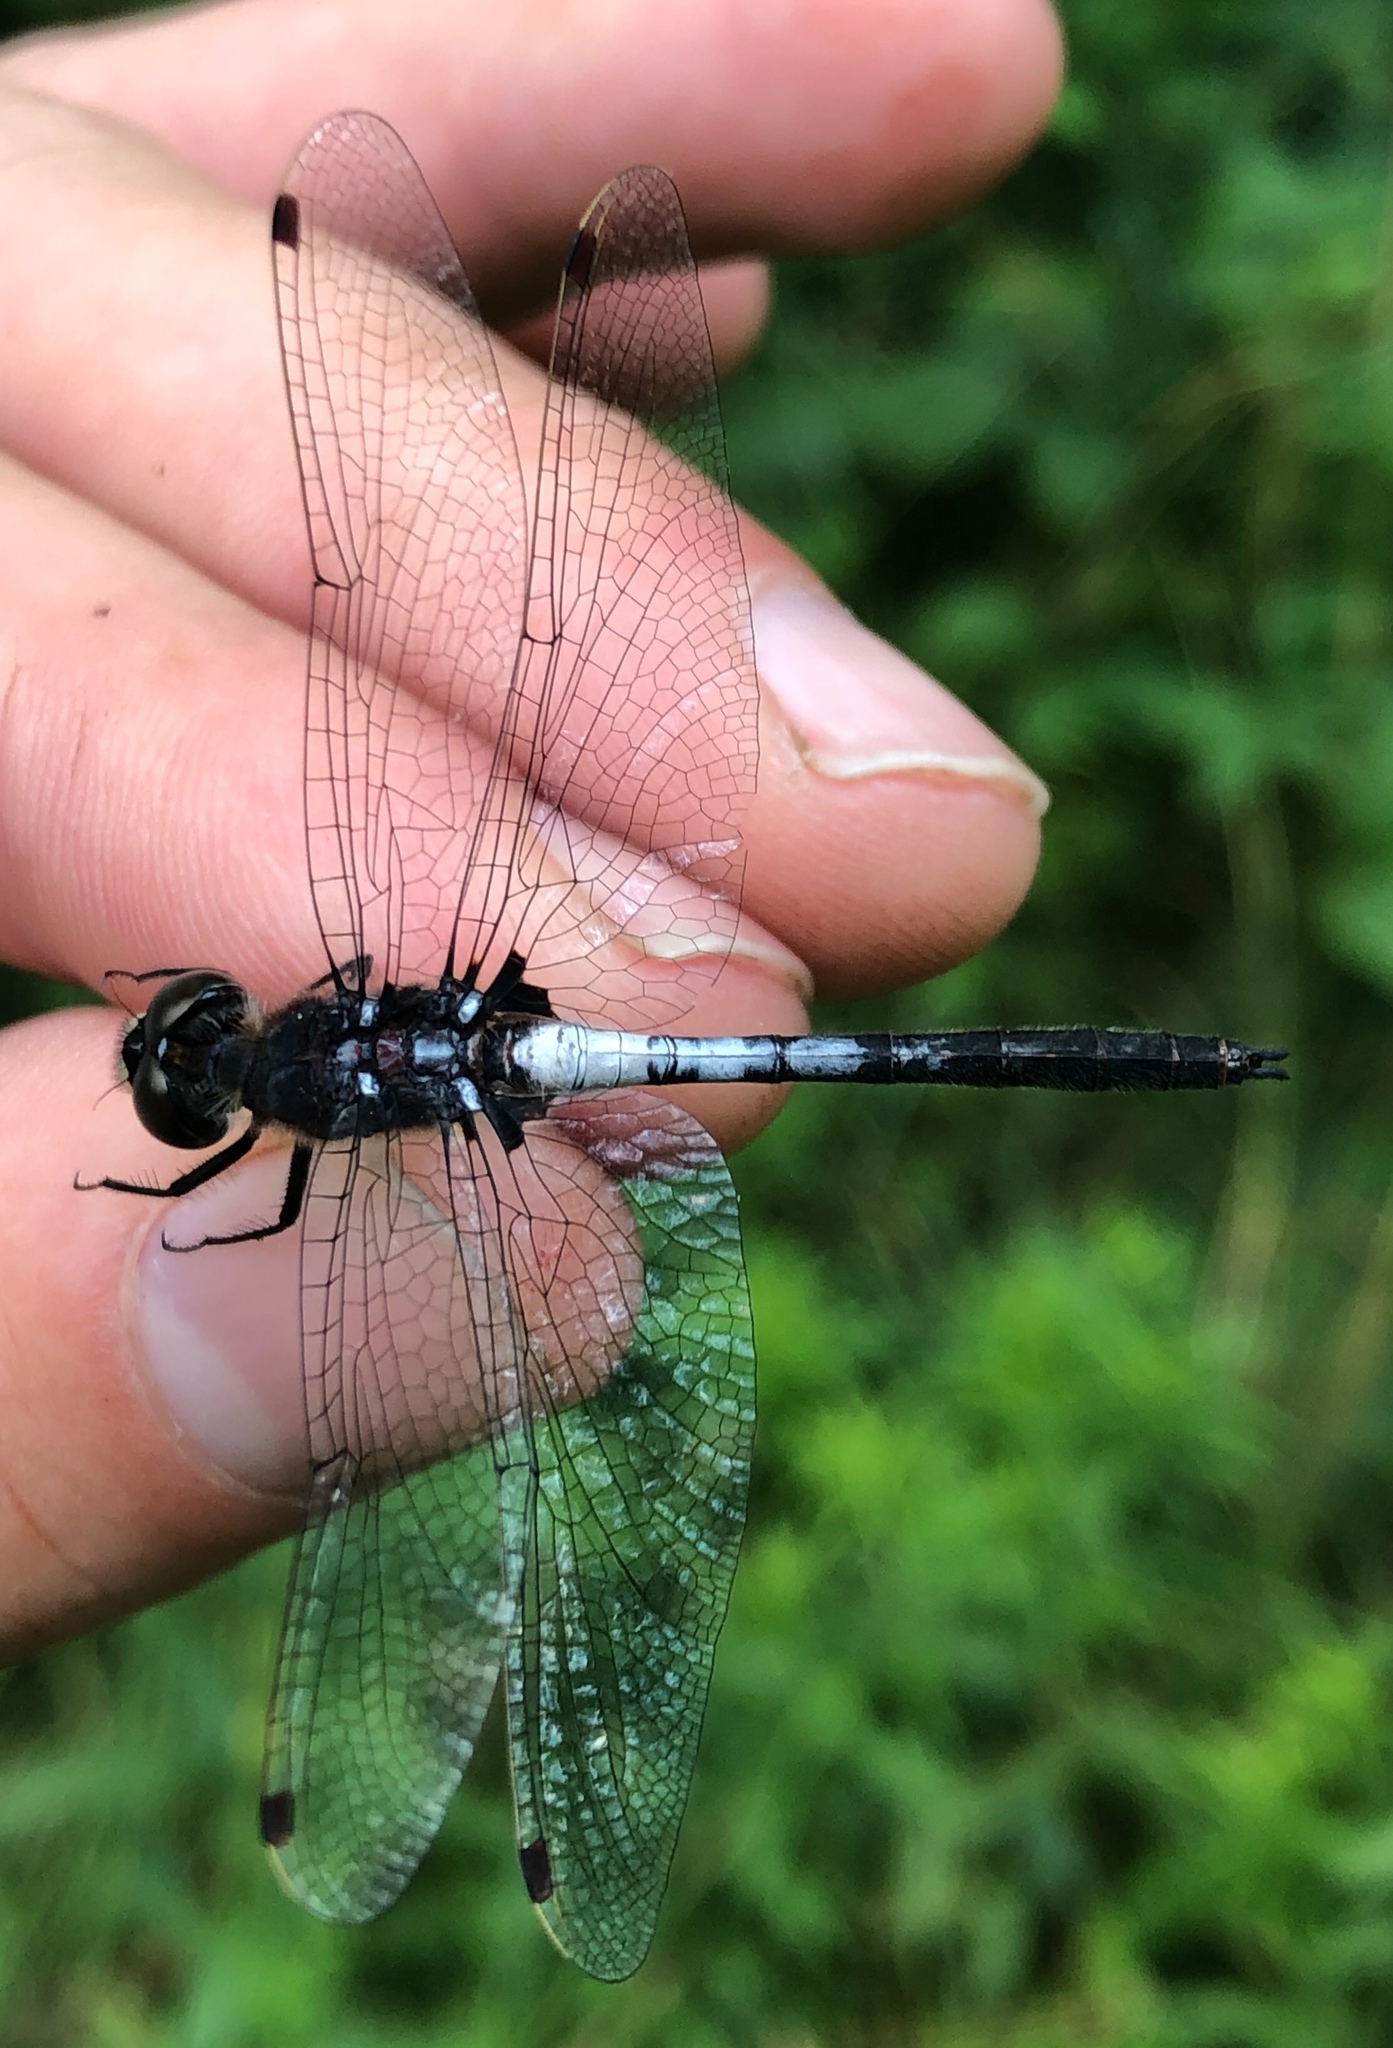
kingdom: Animalia
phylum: Arthropoda
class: Insecta
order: Odonata
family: Libellulidae
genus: Leucorrhinia
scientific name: Leucorrhinia frigida
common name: Frosted whiteface
